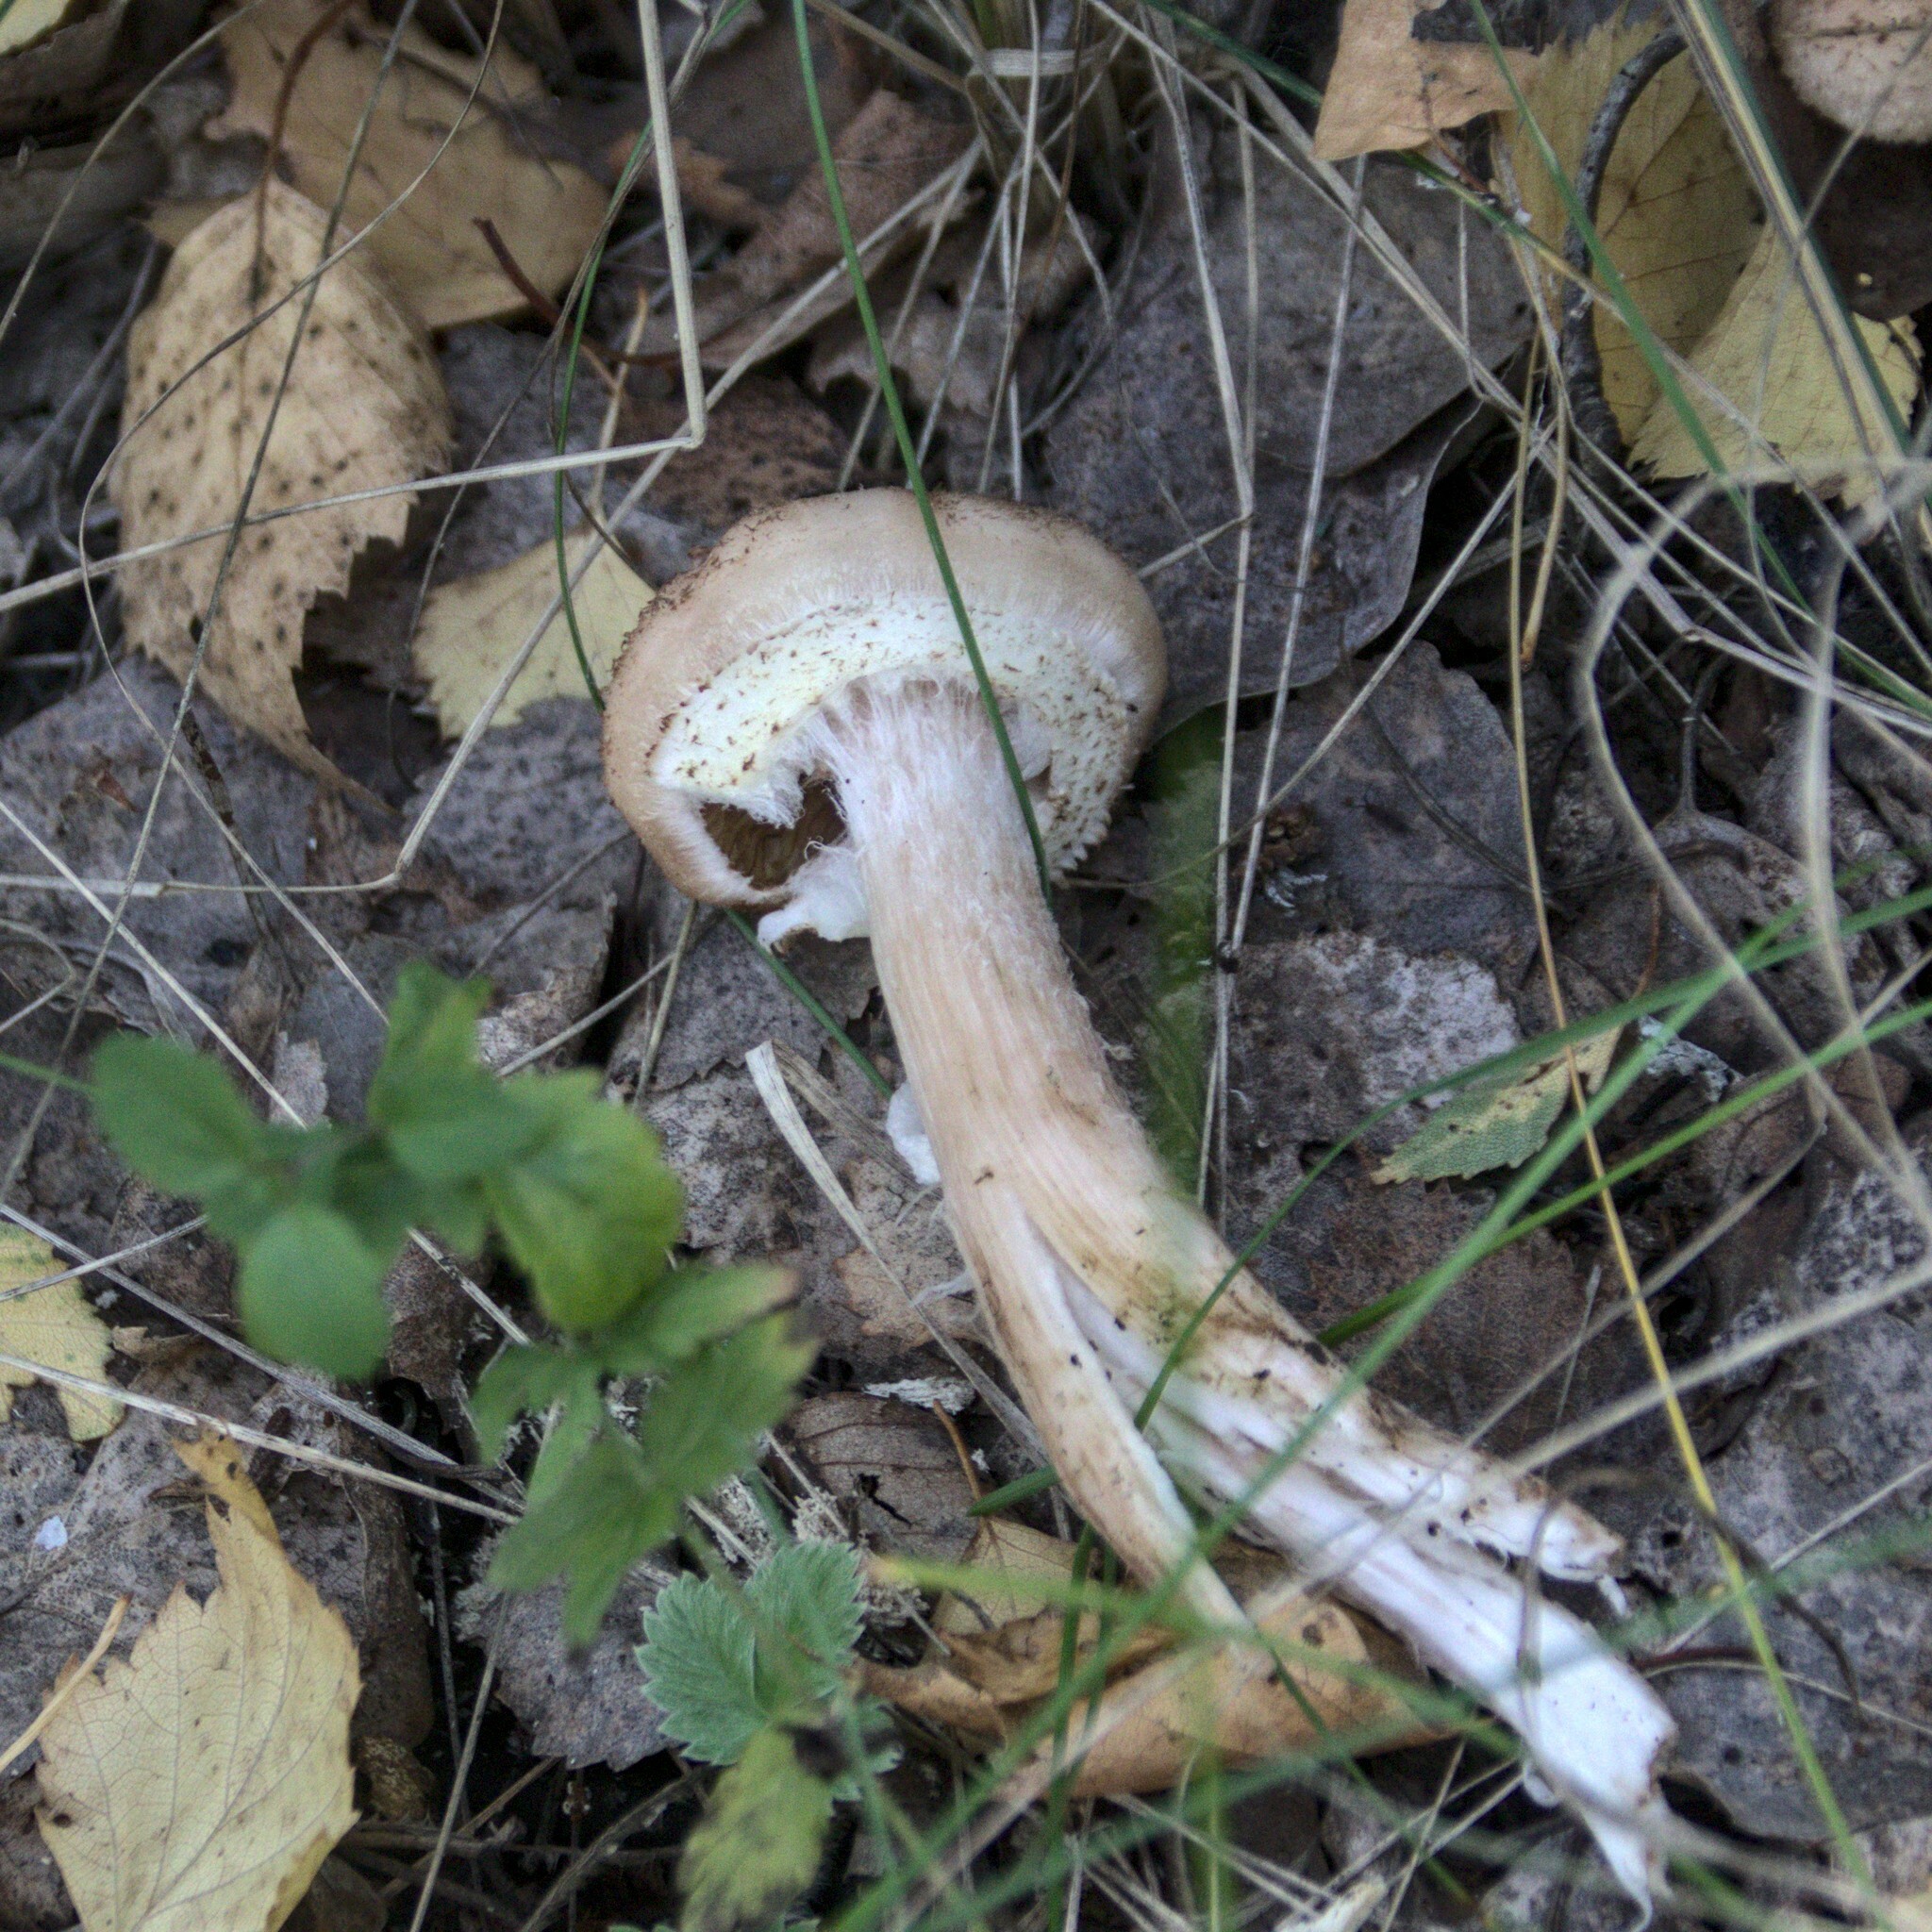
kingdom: Fungi
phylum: Basidiomycota
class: Agaricomycetes
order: Agaricales
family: Physalacriaceae
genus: Armillaria
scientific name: Armillaria borealis
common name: Northern honey fungus
